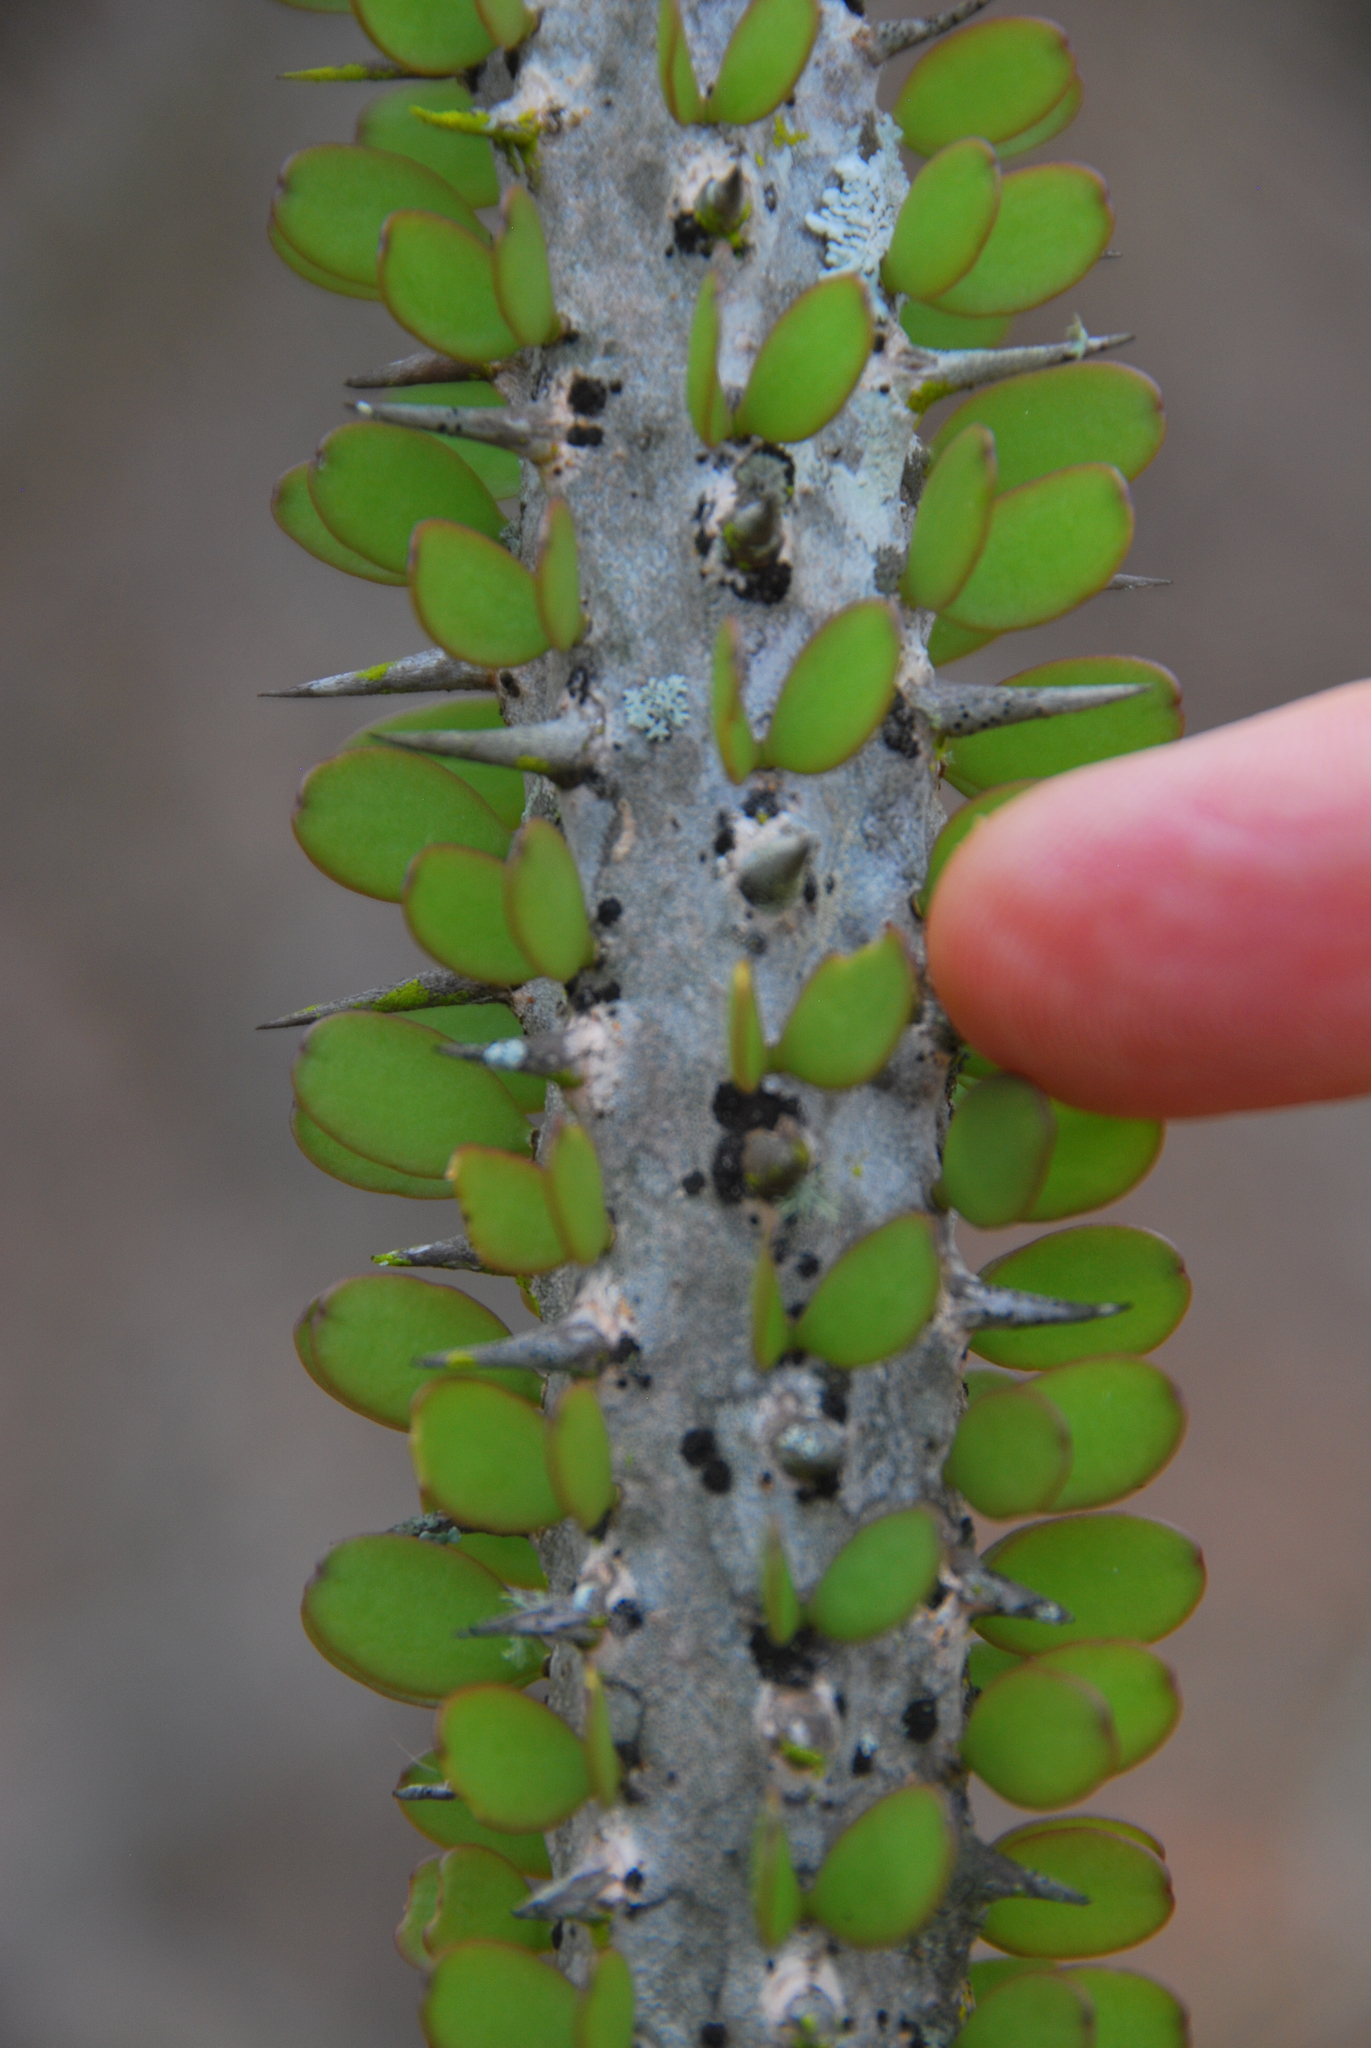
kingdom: Plantae
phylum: Tracheophyta
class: Magnoliopsida
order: Caryophyllales
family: Didiereaceae
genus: Alluaudia
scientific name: Alluaudia procera
